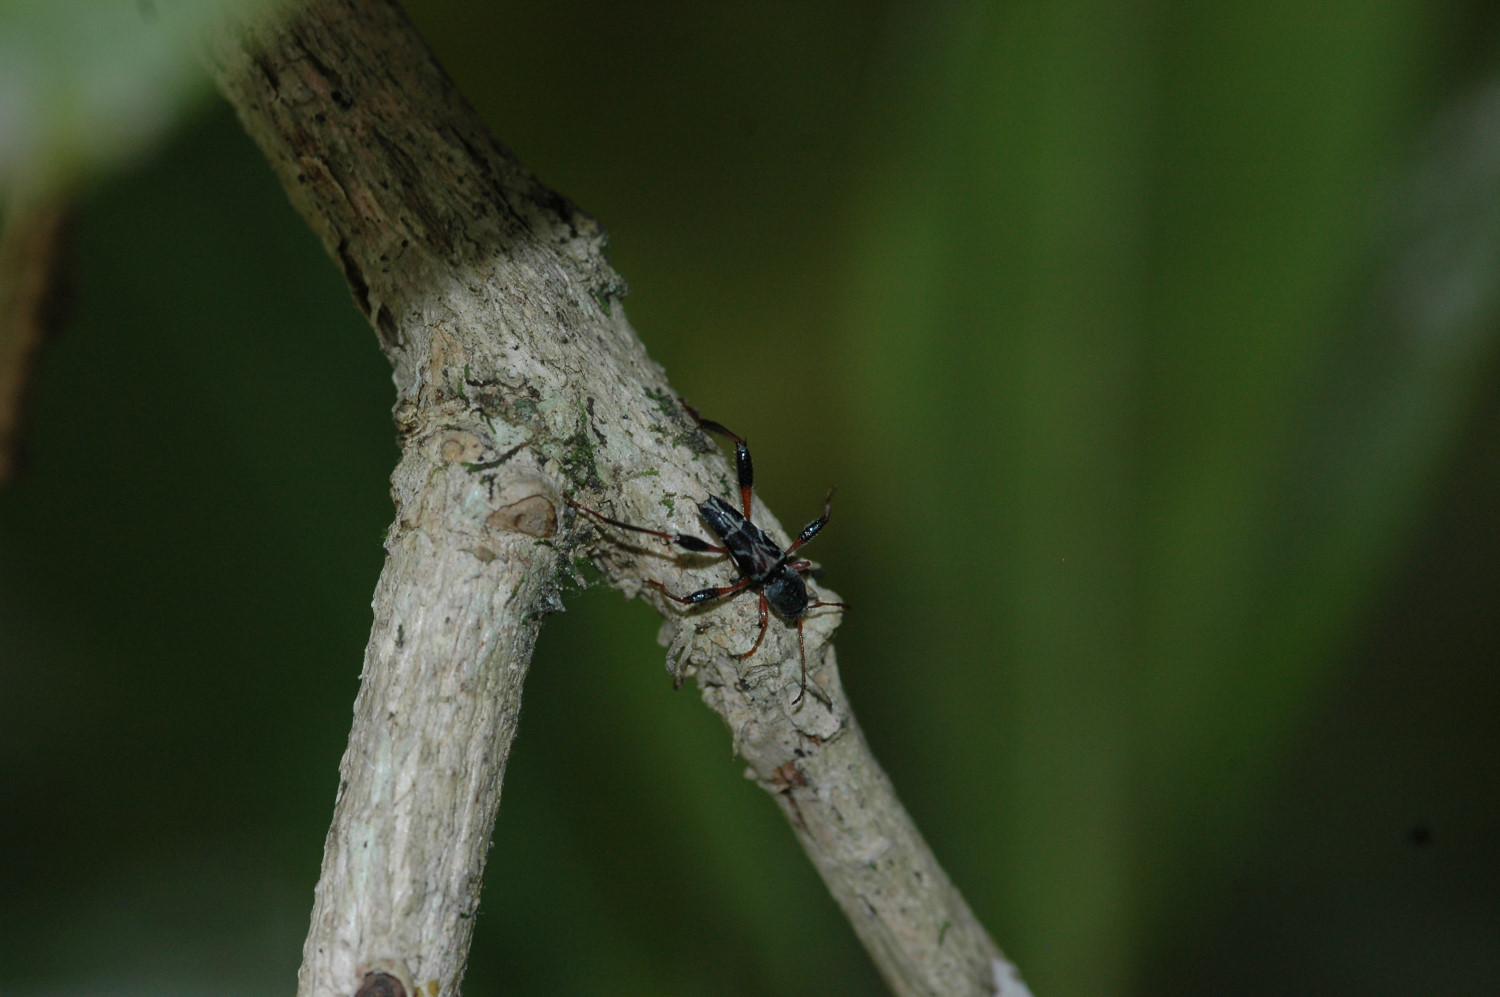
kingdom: Animalia
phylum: Arthropoda
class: Insecta
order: Coleoptera
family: Cerambycidae
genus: Neoclytus
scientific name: Neoclytus araneiformis
